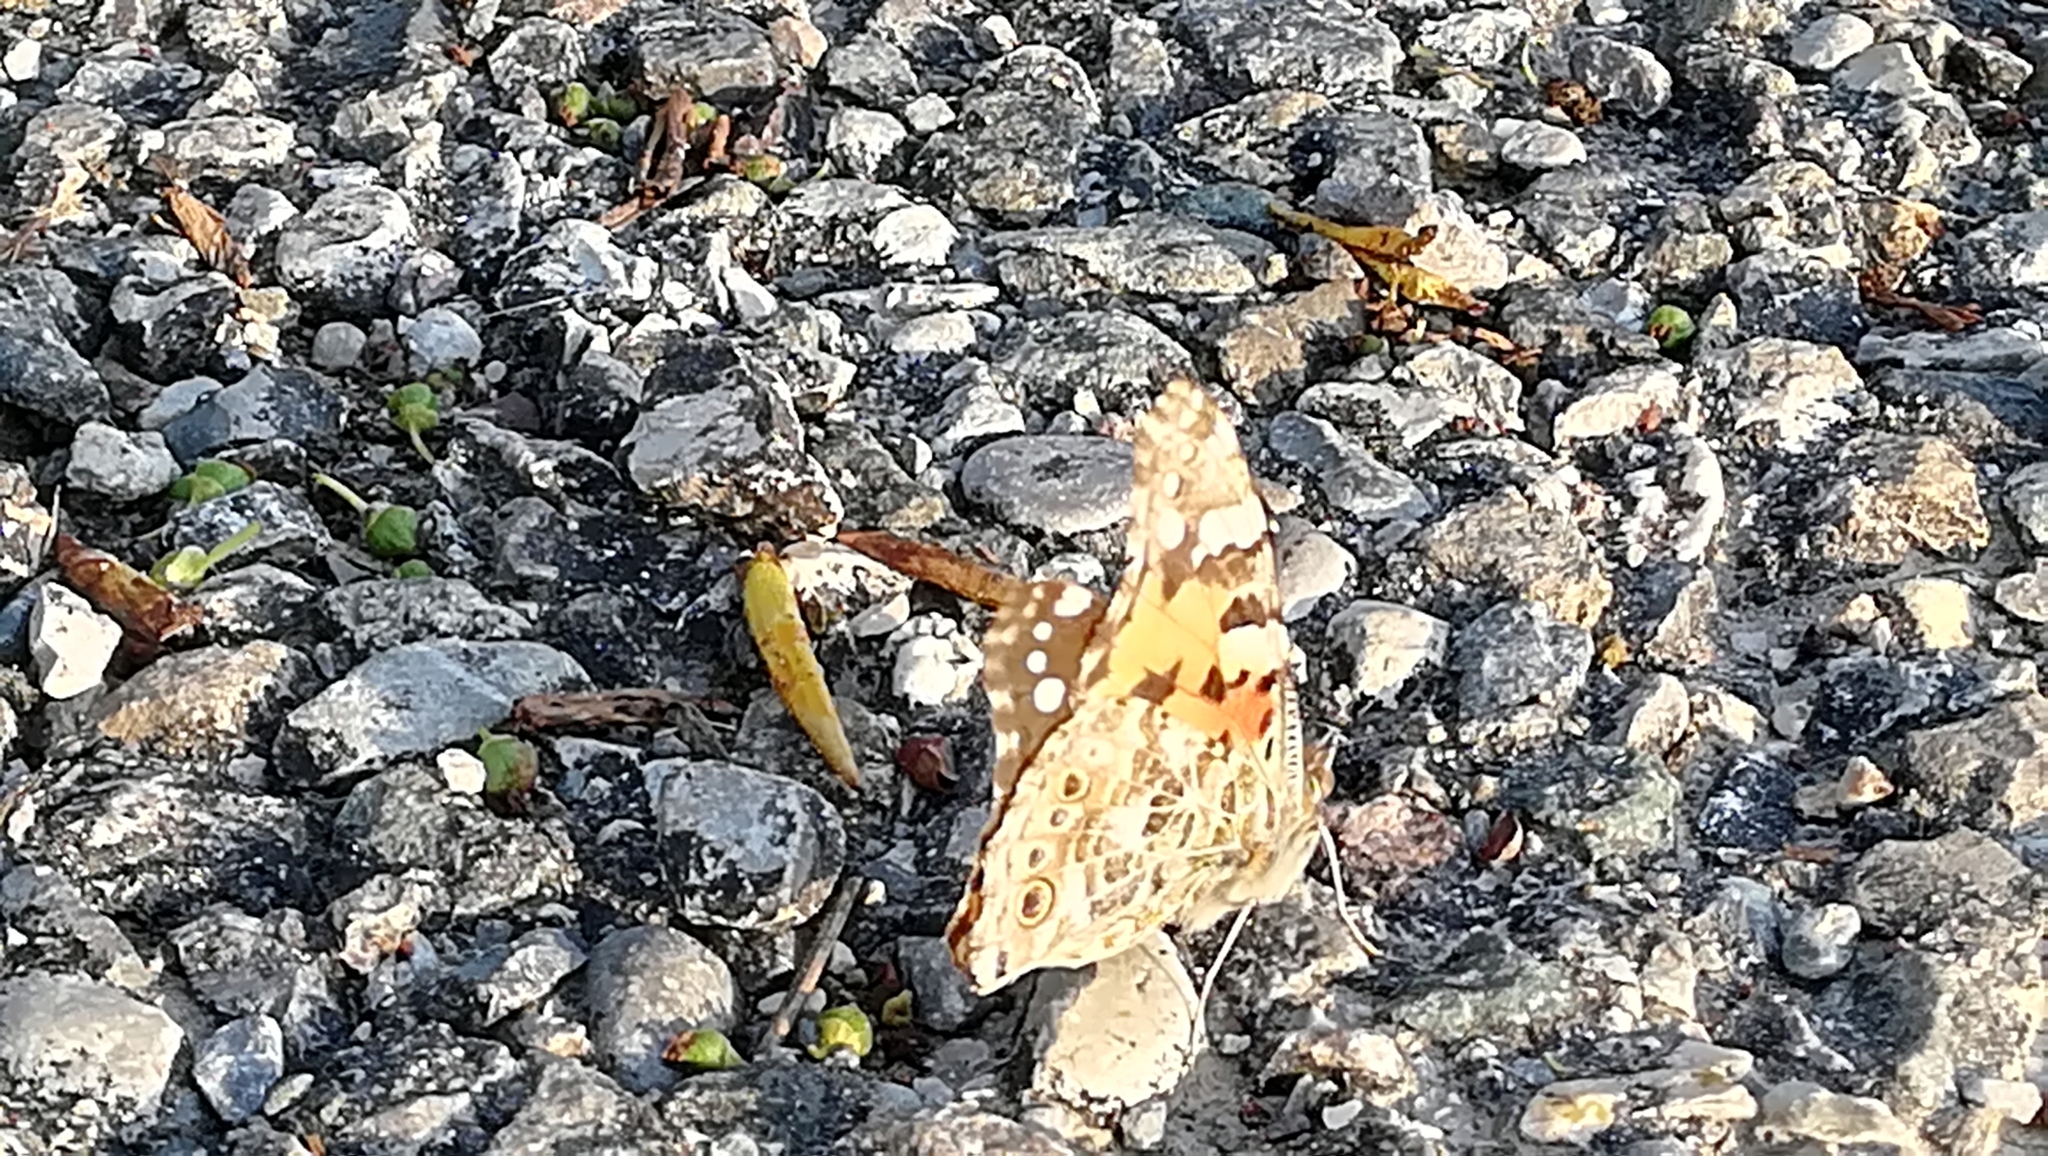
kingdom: Animalia
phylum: Arthropoda
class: Insecta
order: Lepidoptera
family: Nymphalidae
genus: Vanessa
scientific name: Vanessa cardui
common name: Painted lady
